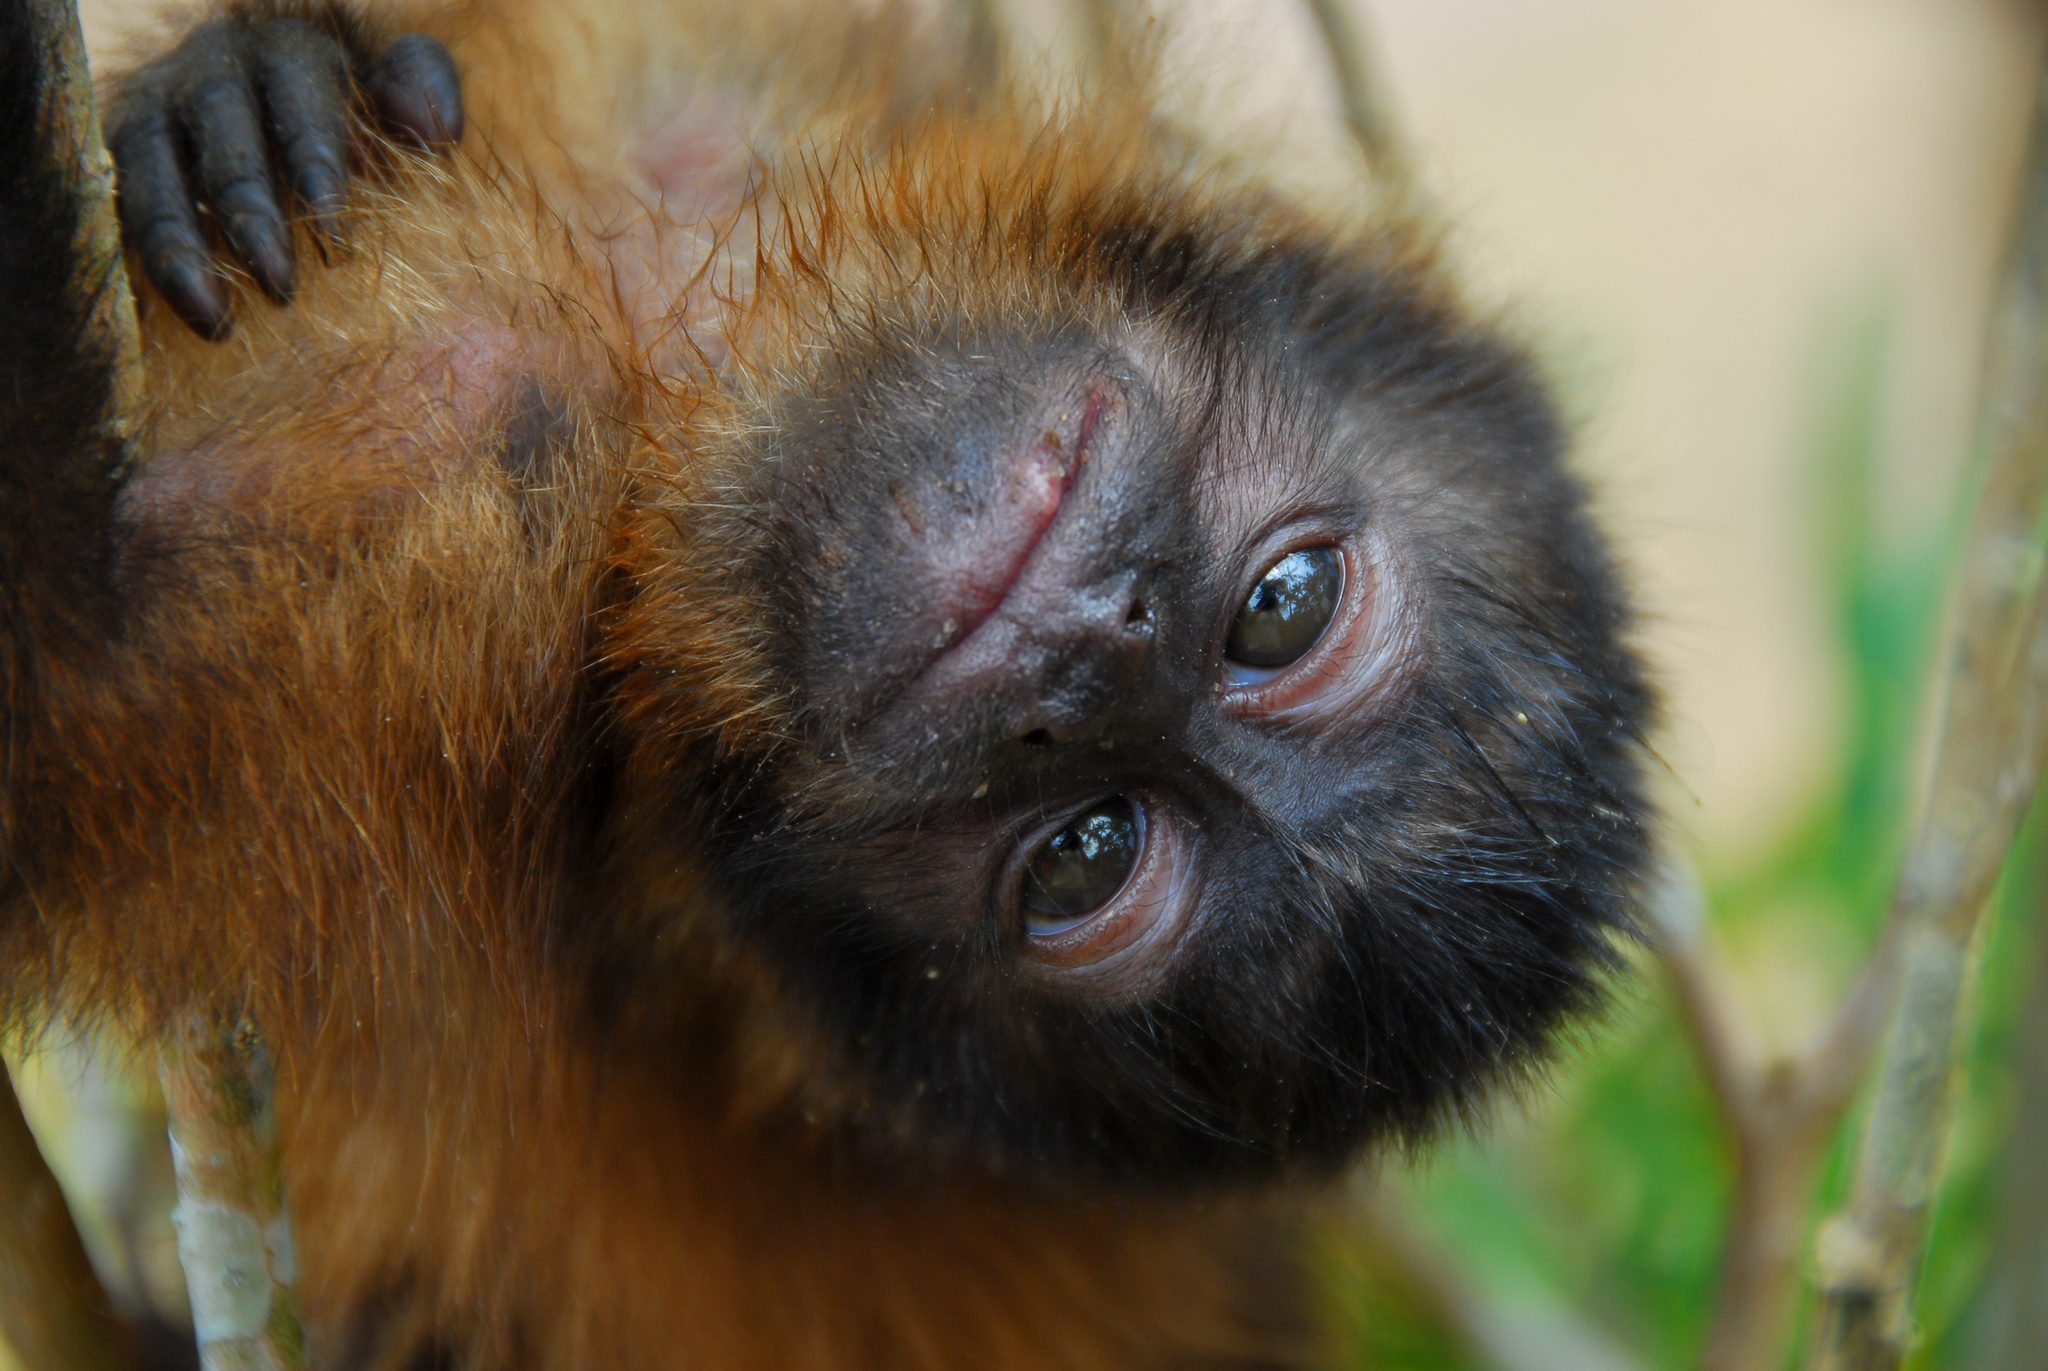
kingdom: Animalia
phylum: Chordata
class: Mammalia
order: Primates
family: Cebidae
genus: Sapajus
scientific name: Sapajus apella
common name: Tufted capuchin
